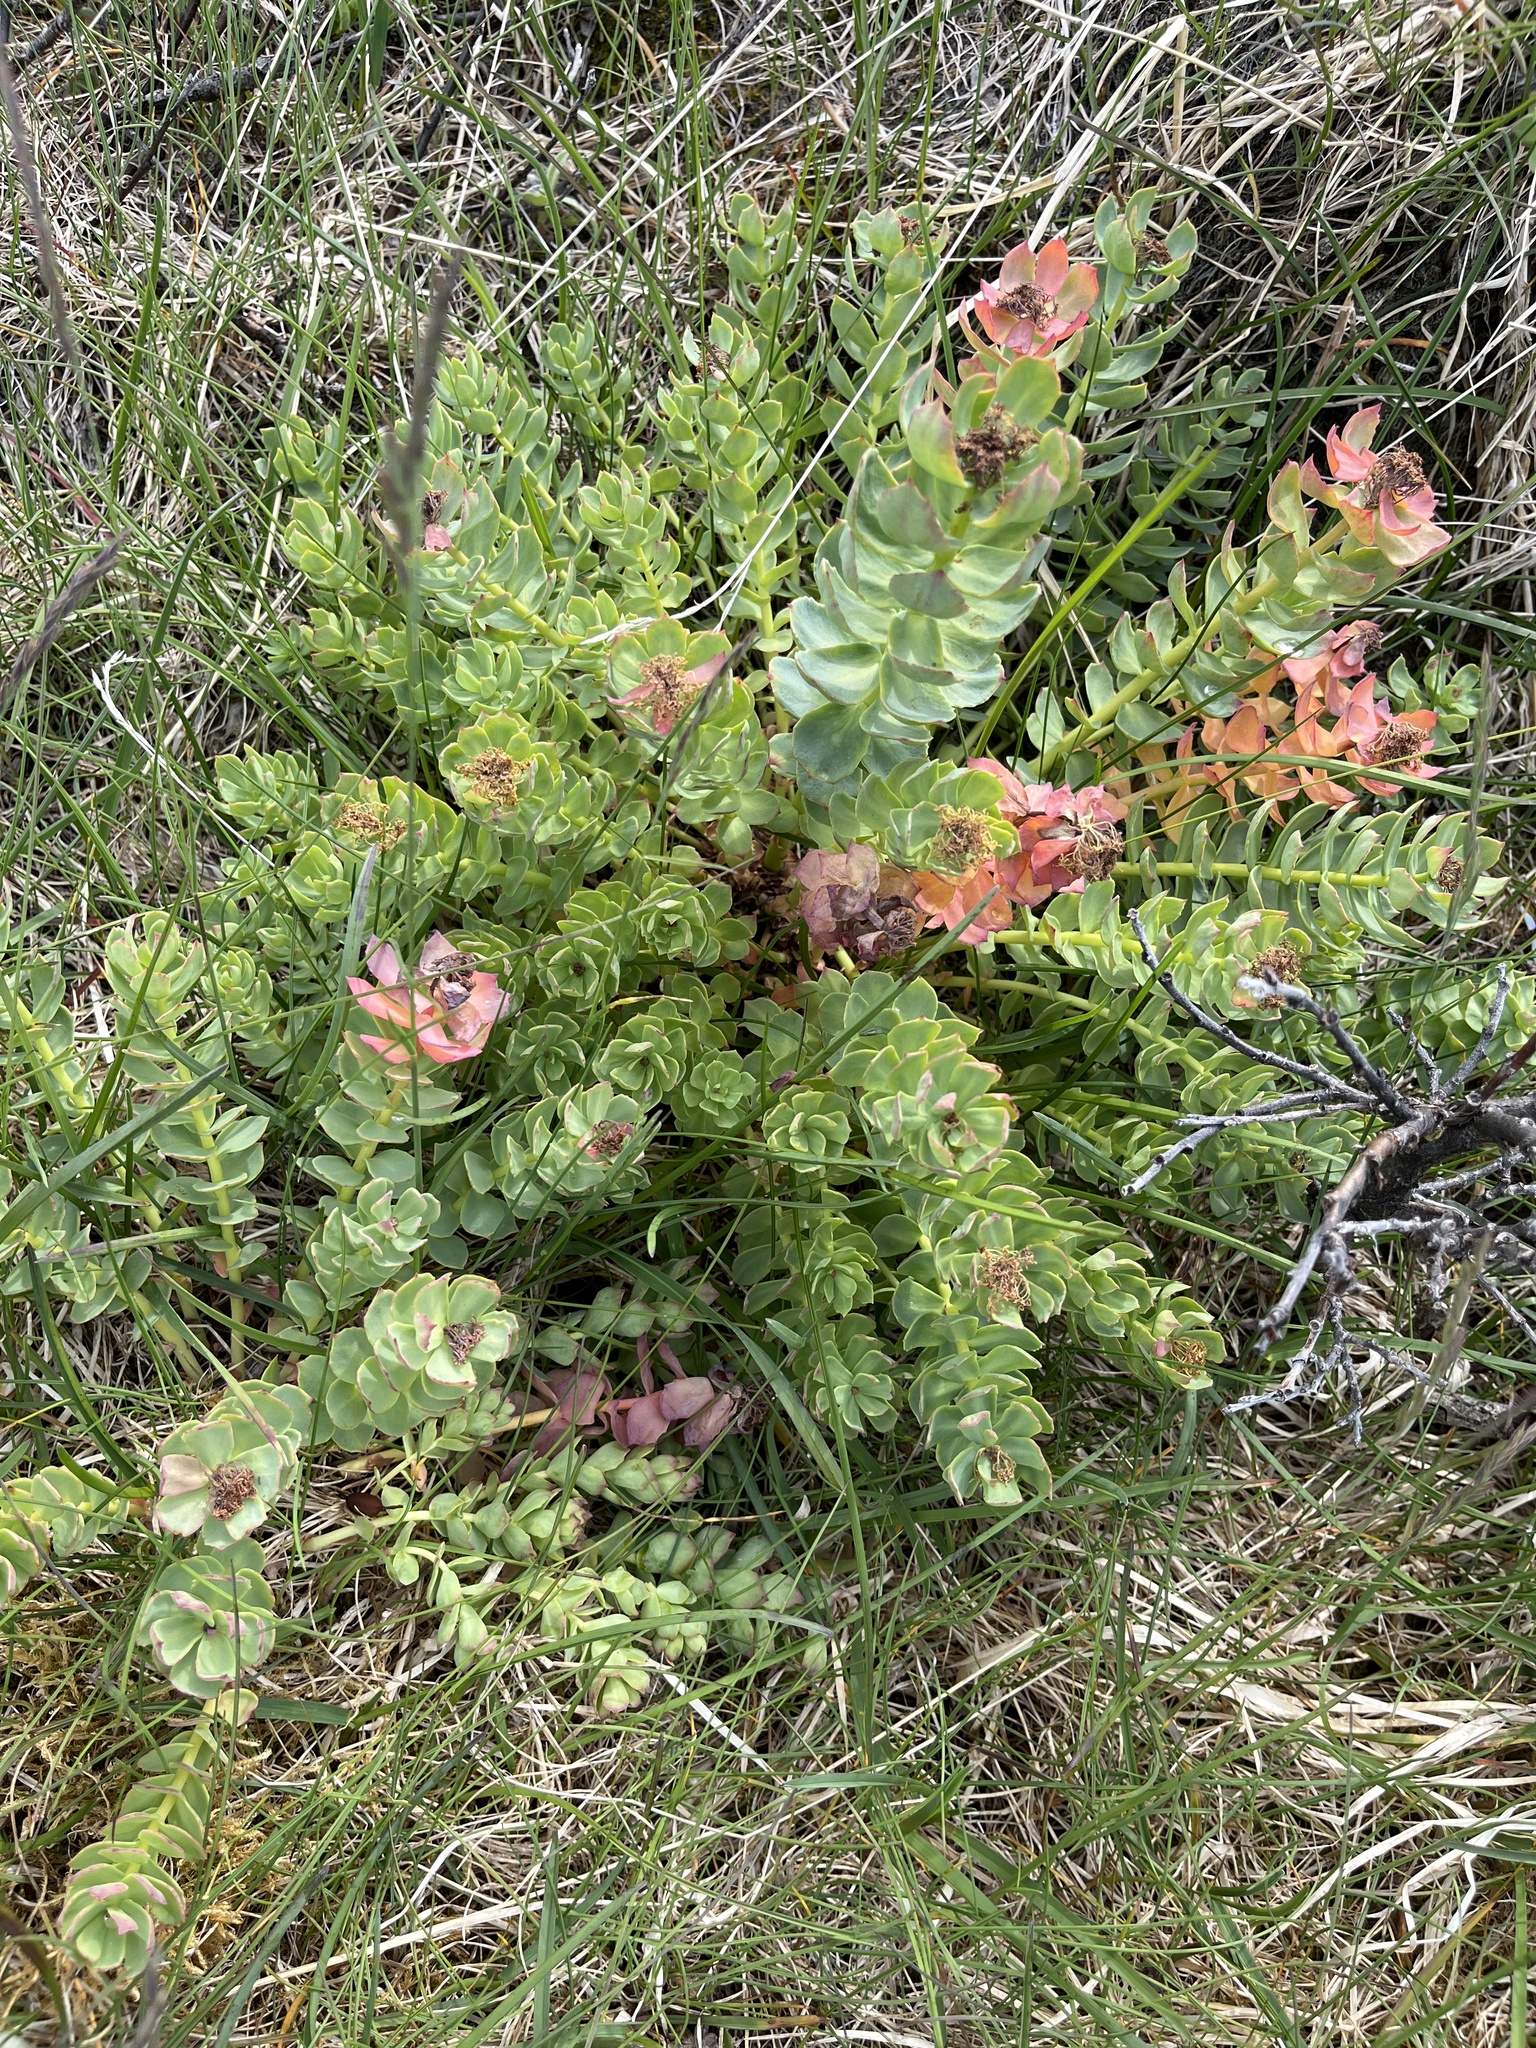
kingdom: Plantae
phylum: Tracheophyta
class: Magnoliopsida
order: Saxifragales
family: Crassulaceae
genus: Rhodiola
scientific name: Rhodiola rosea
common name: Roseroot
